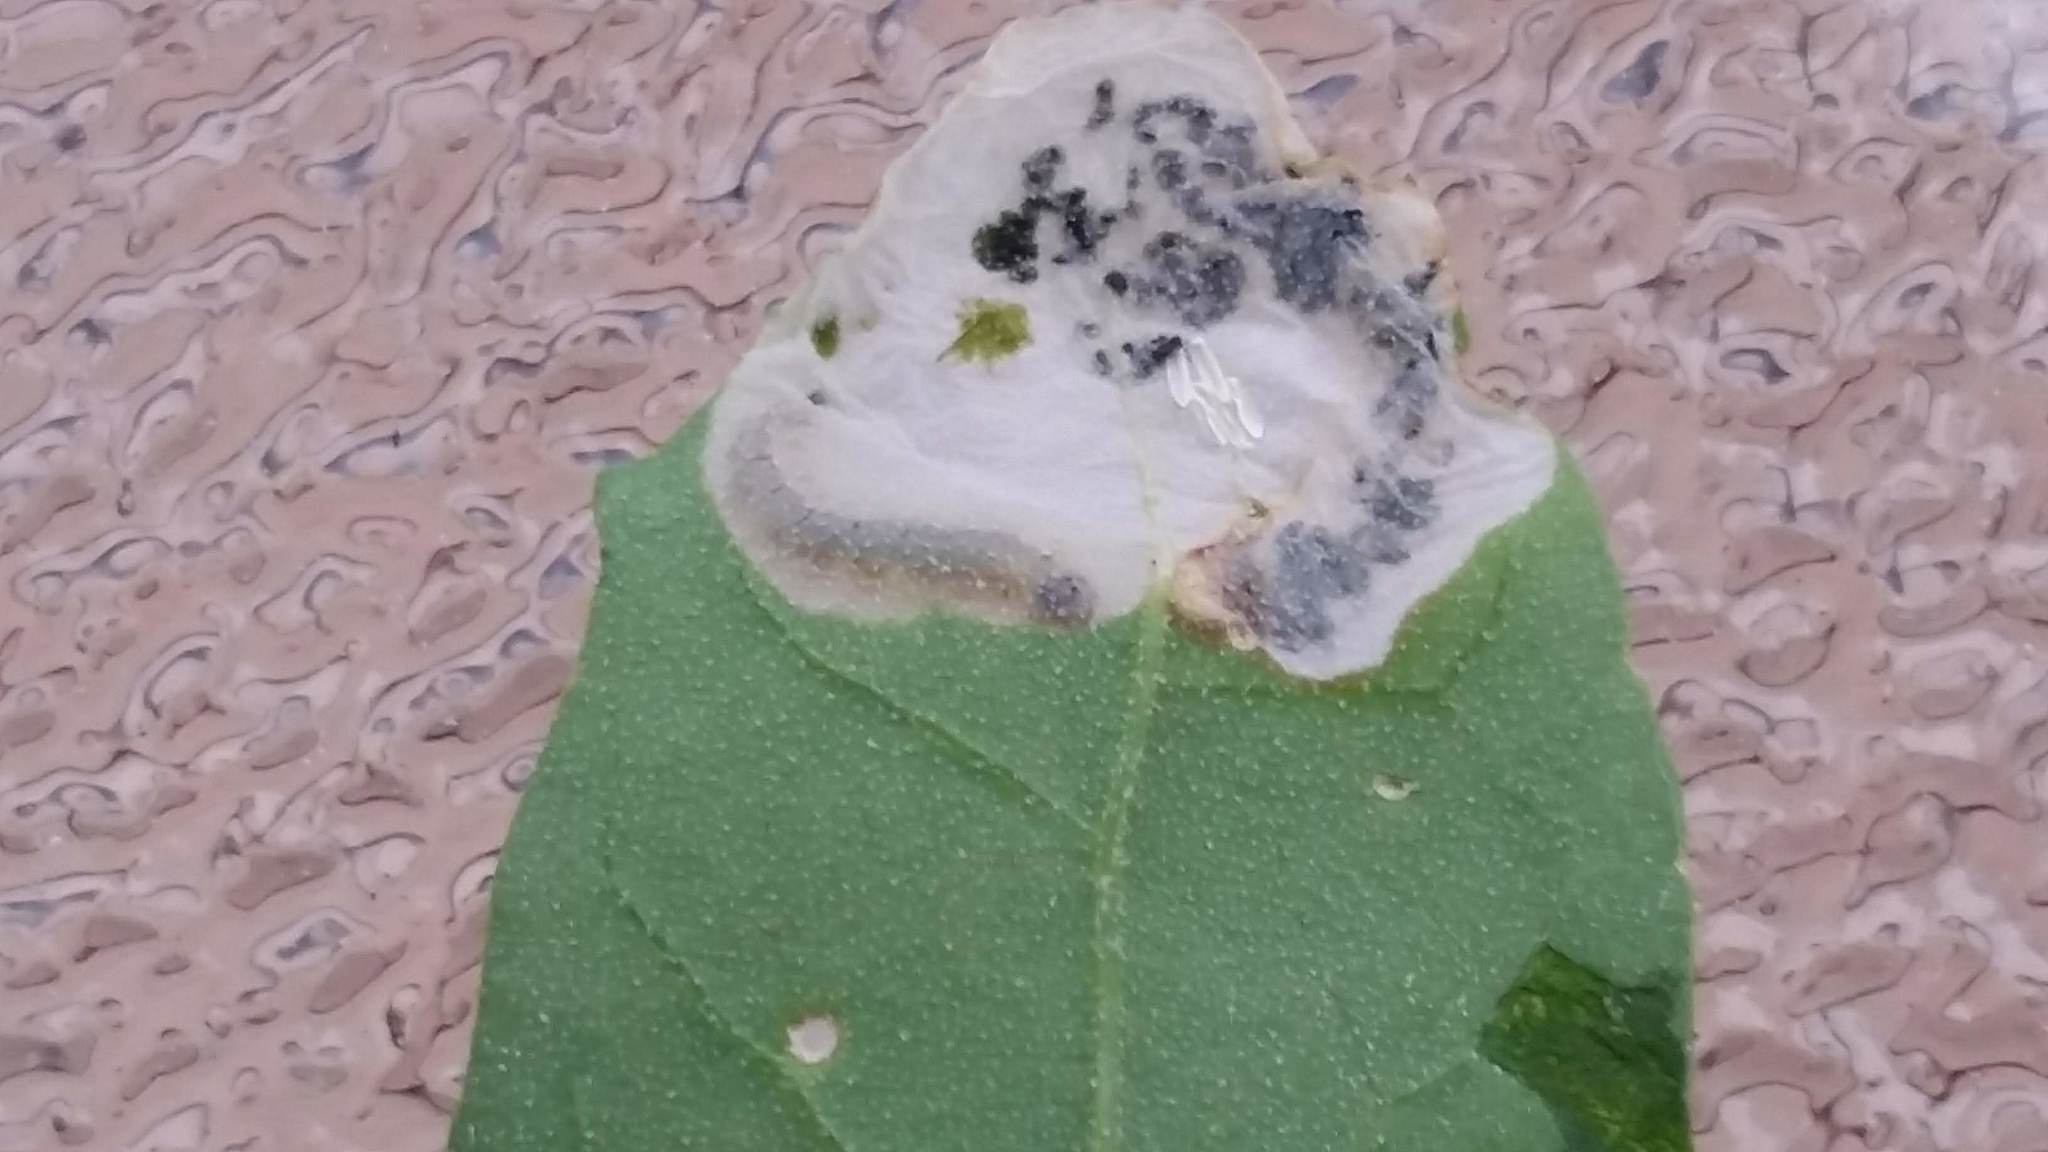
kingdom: Animalia
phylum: Arthropoda
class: Insecta
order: Lepidoptera
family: Gelechiidae
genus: Chrysoesthia
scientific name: Chrysoesthia sexguttella
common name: Moth
